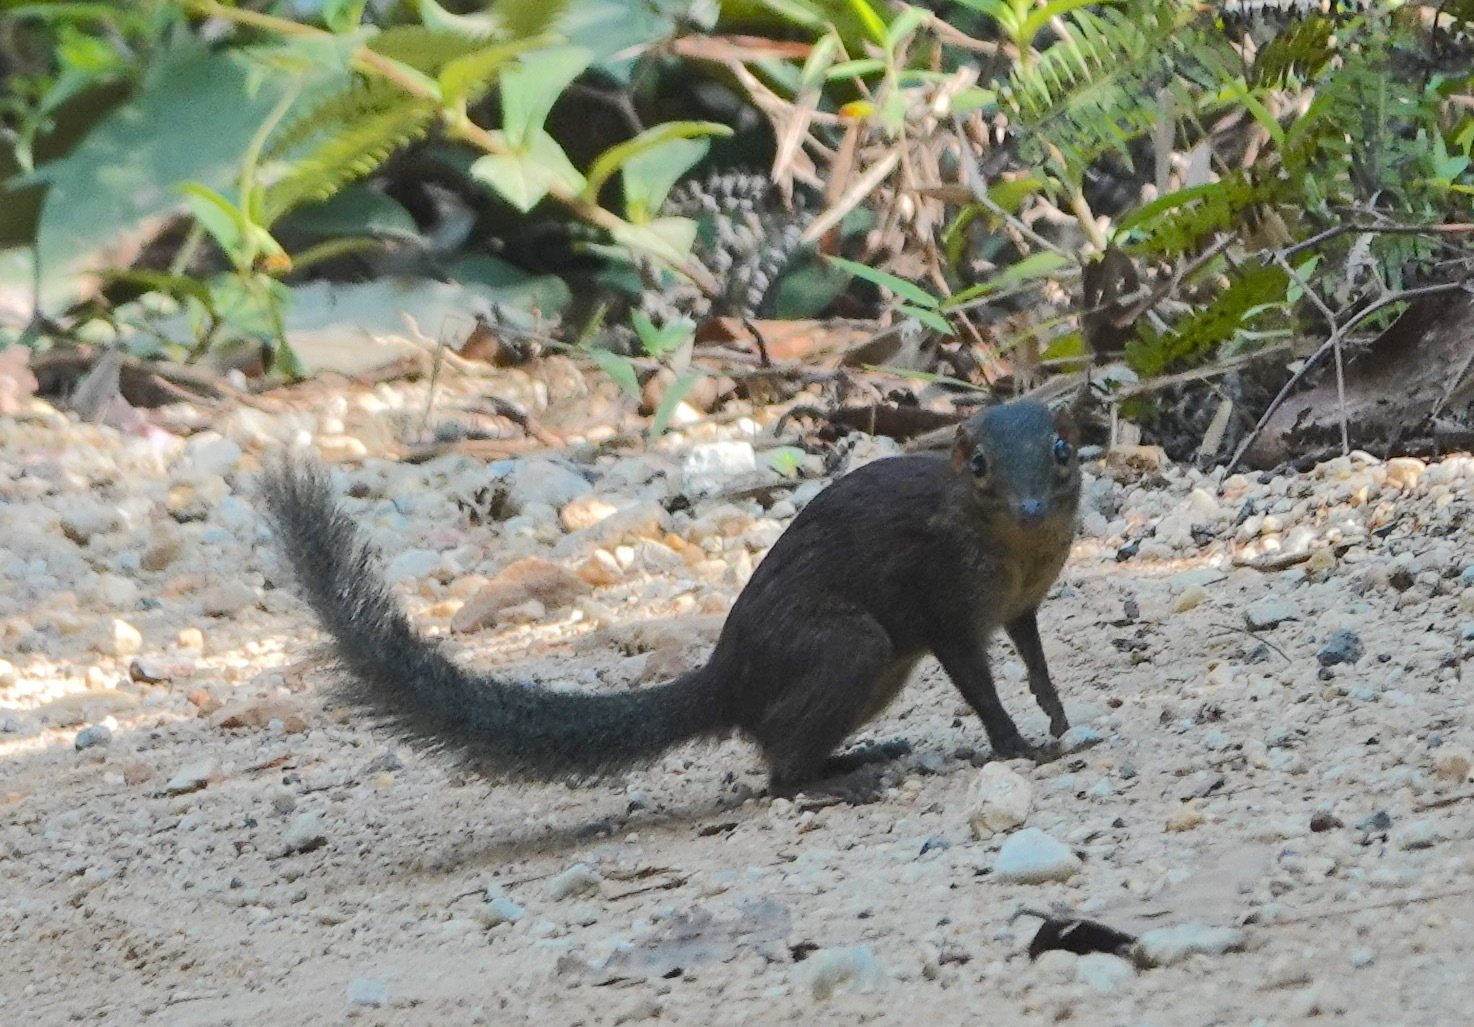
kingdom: Animalia
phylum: Chordata
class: Mammalia
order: Scandentia
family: Tupaiidae
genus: Tupaia
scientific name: Tupaia glis
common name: Common treeshrew
